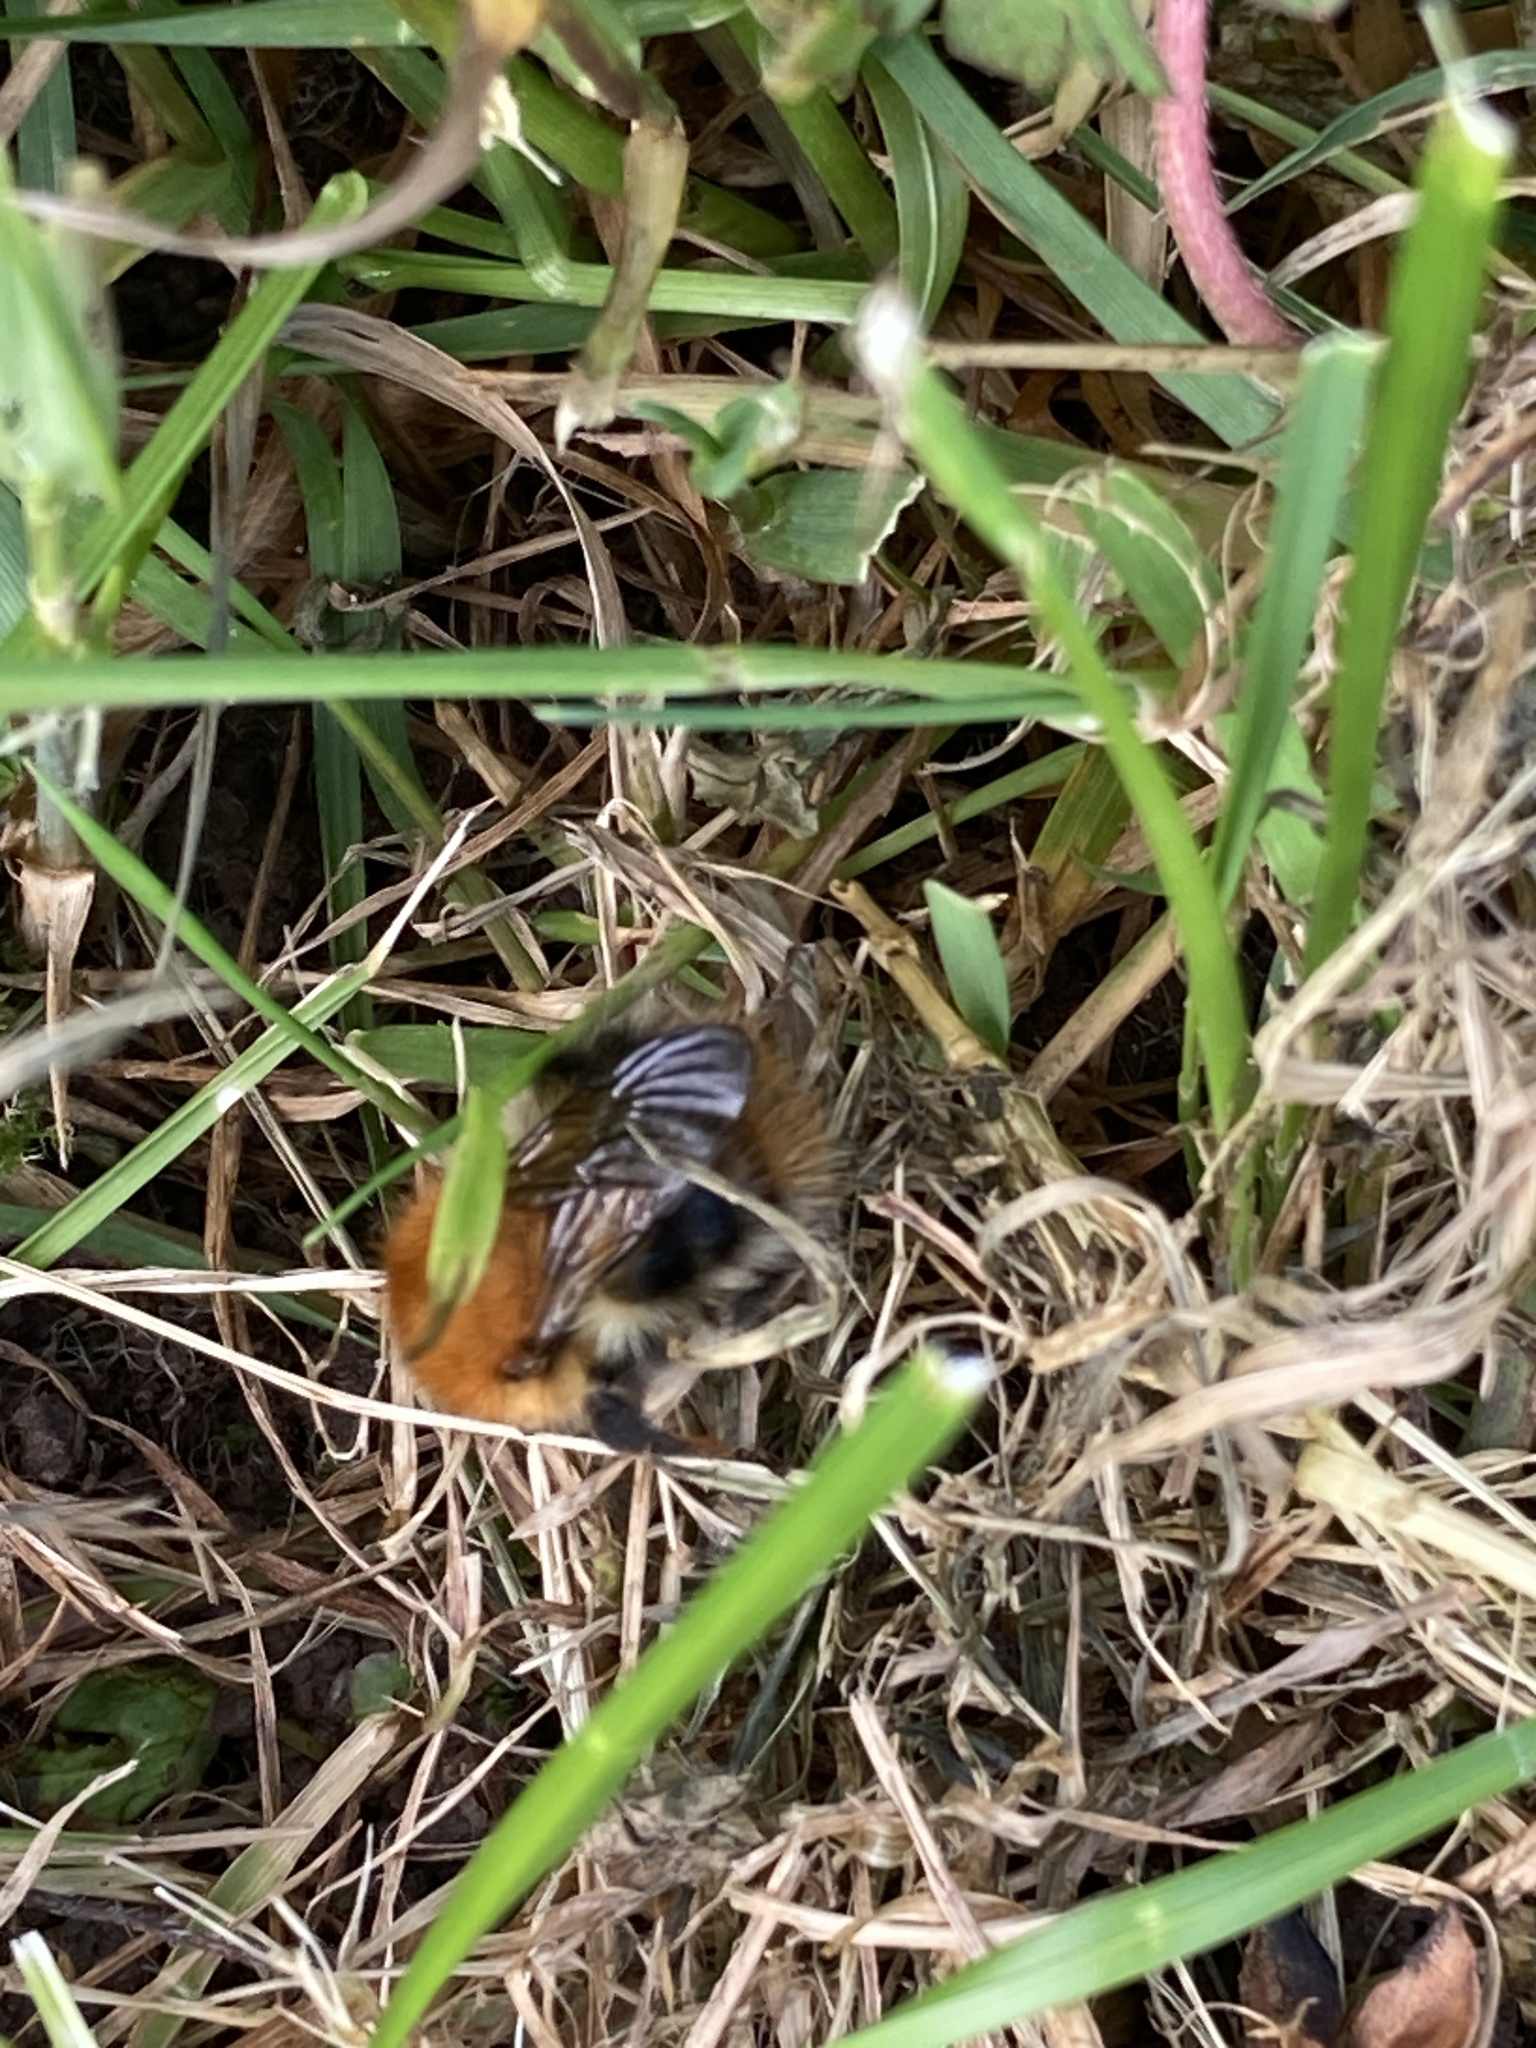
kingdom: Animalia
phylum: Arthropoda
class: Insecta
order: Hymenoptera
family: Apidae
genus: Bombus
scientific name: Bombus pascuorum
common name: Common carder bee
